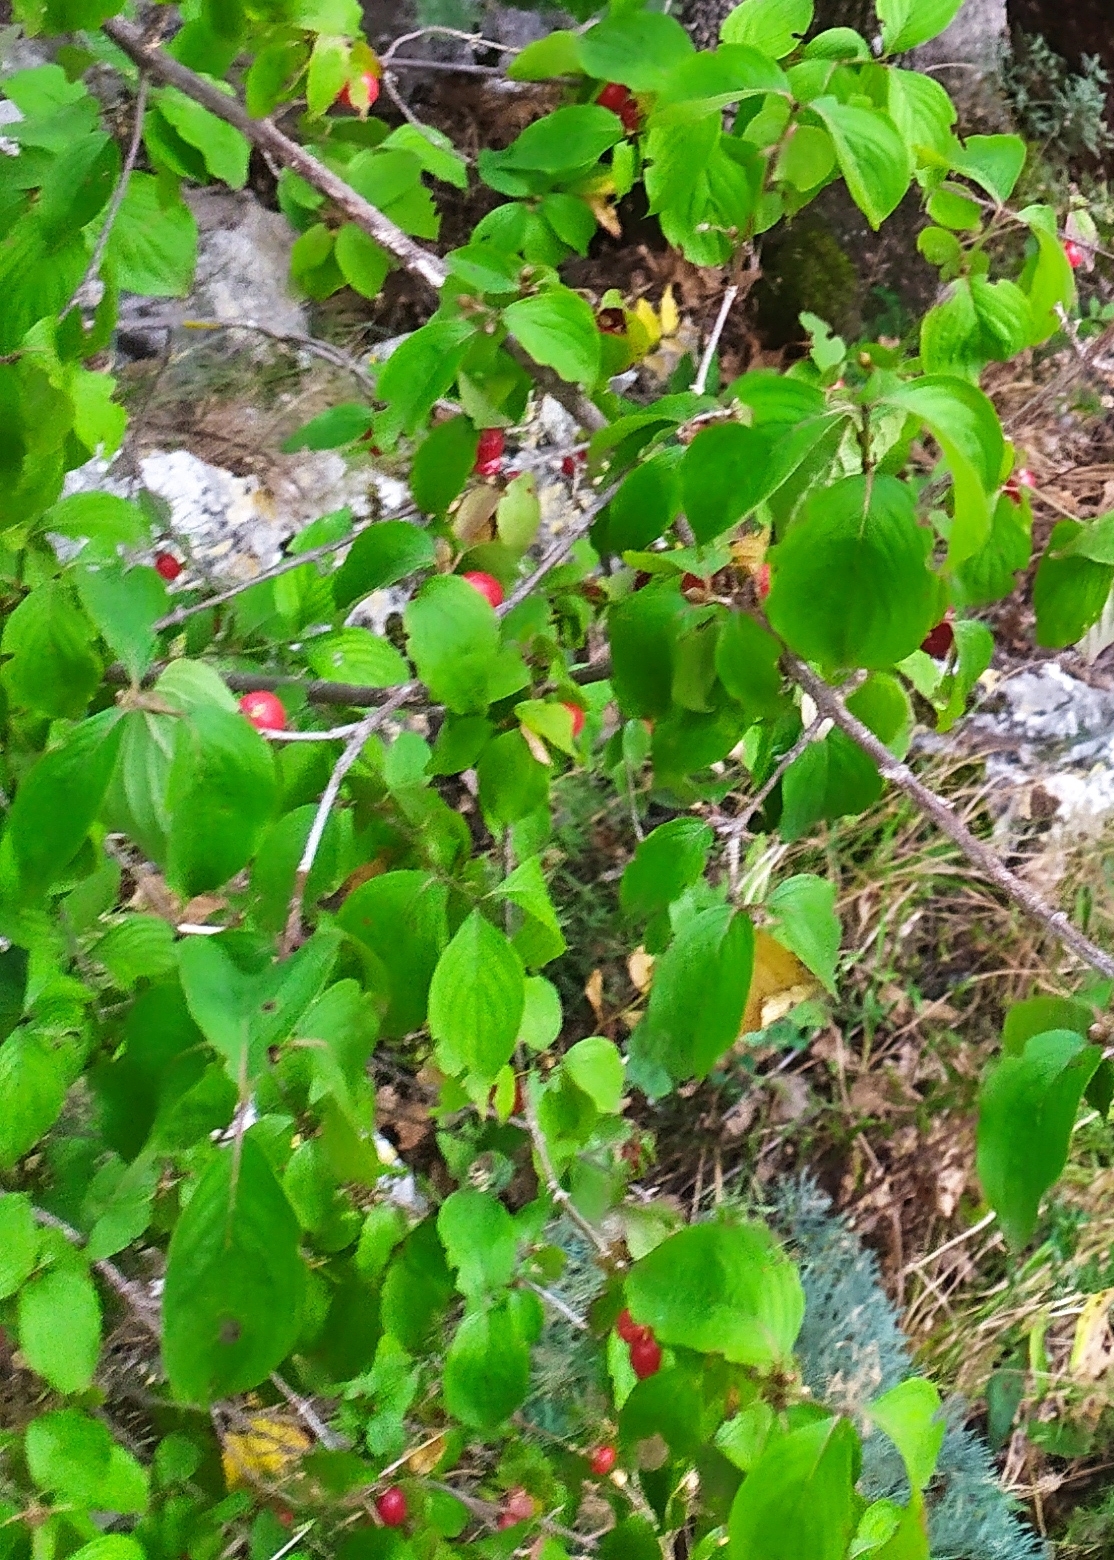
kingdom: Plantae
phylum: Tracheophyta
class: Magnoliopsida
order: Cornales
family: Cornaceae
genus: Cornus
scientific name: Cornus mas
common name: Cornelian-cherry
